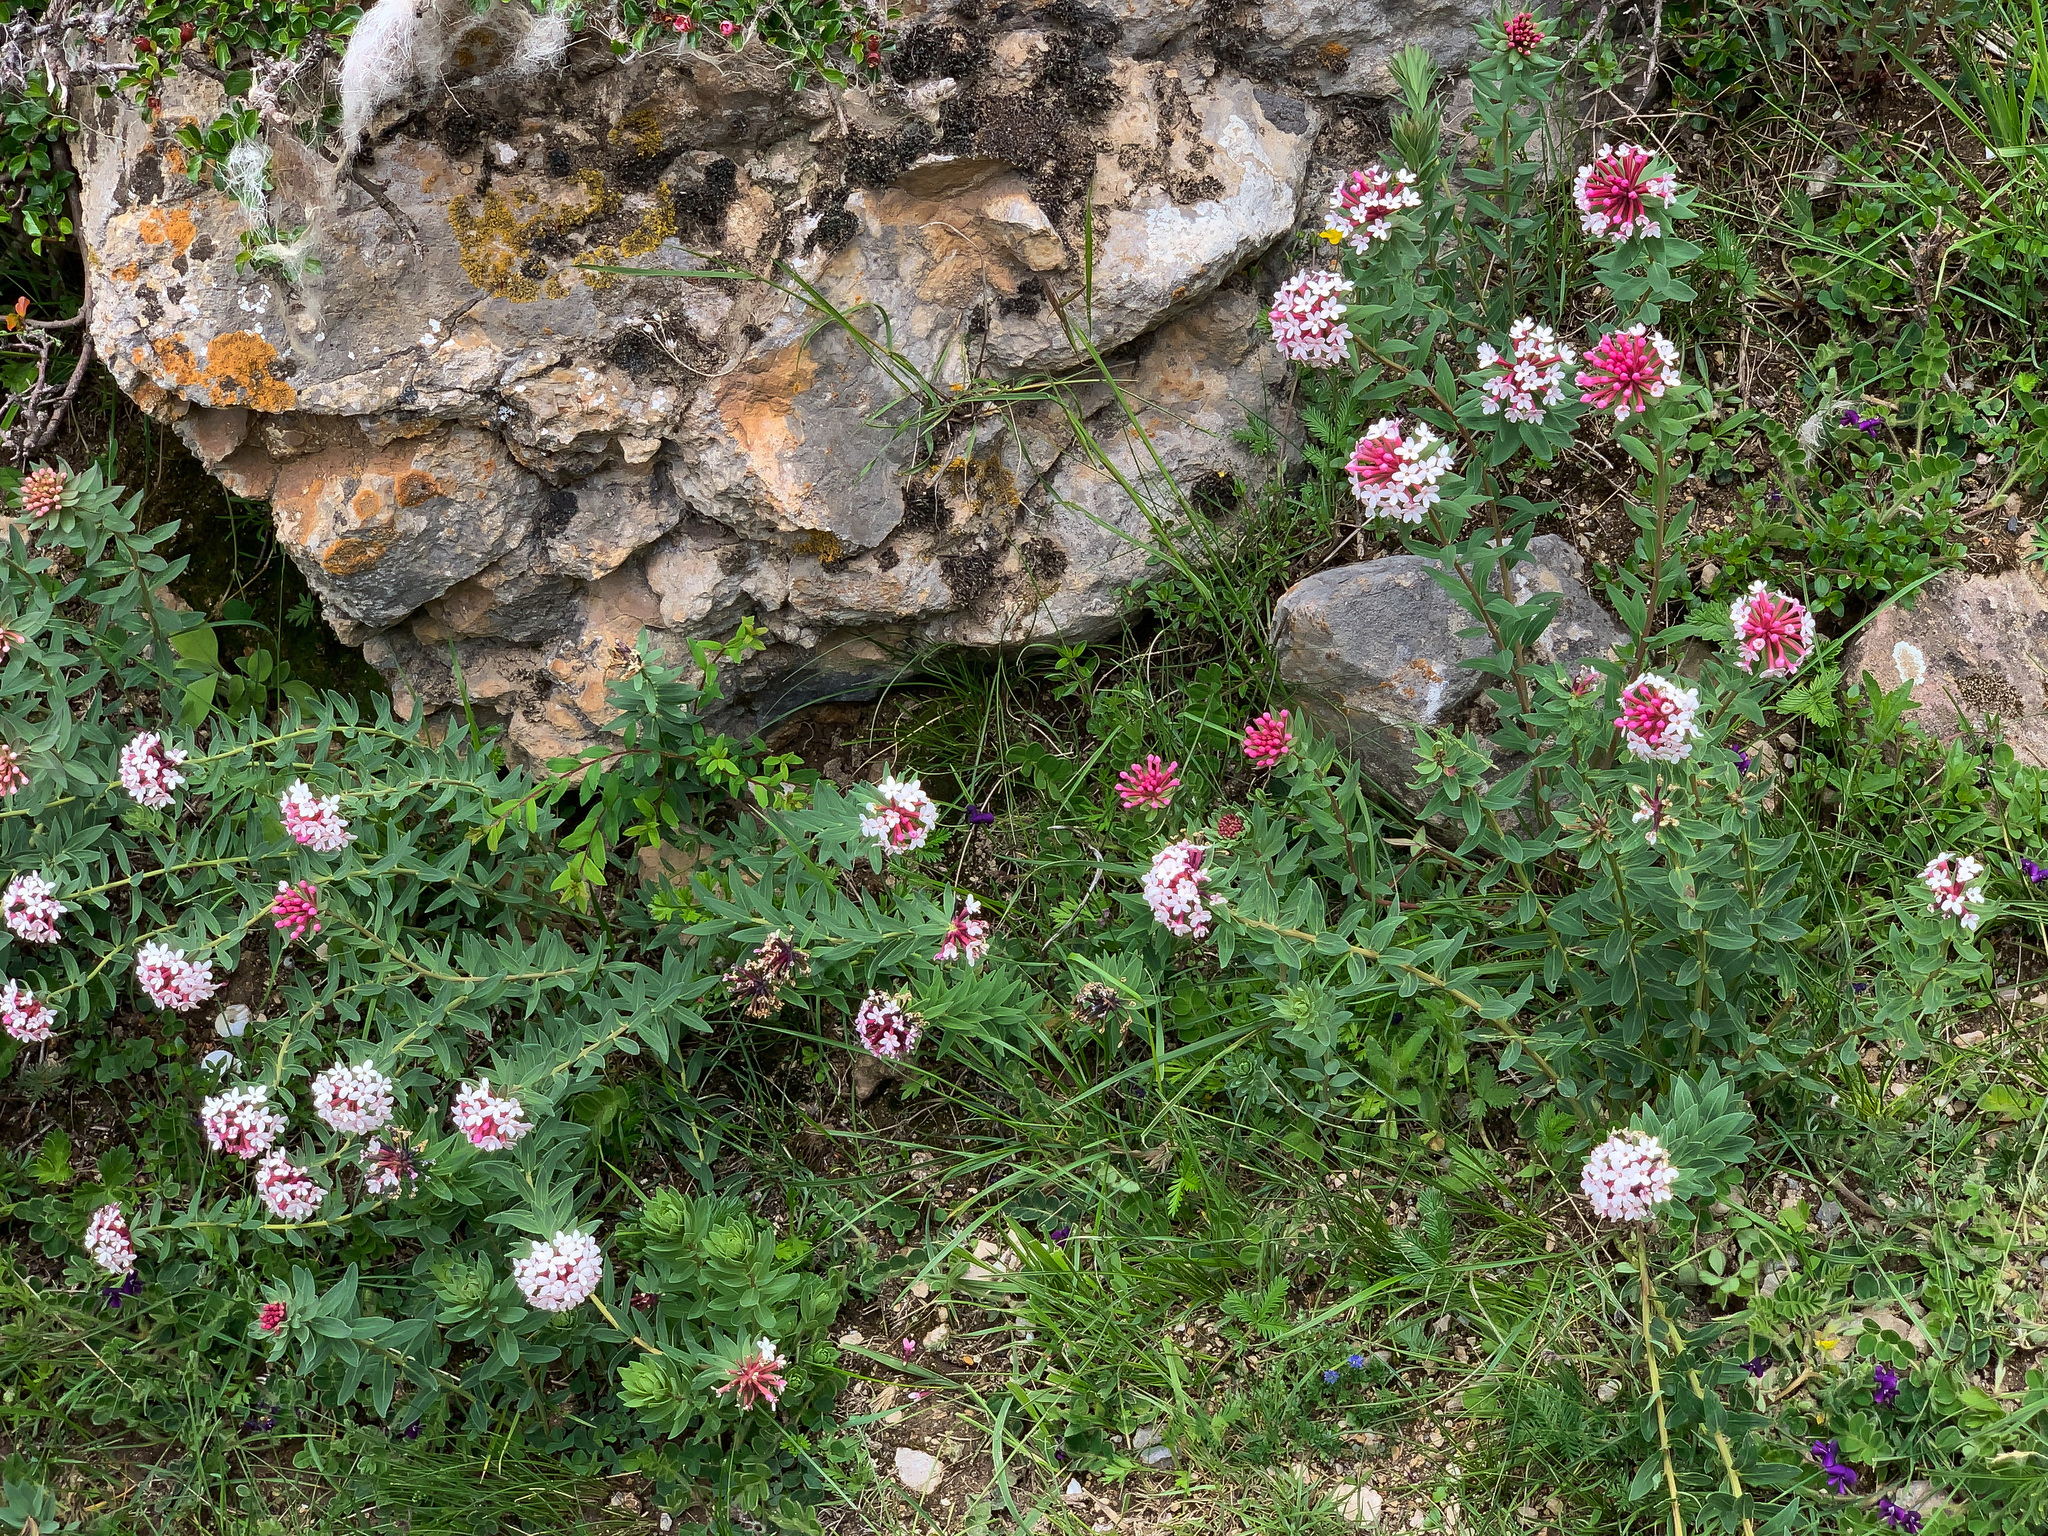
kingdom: Plantae
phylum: Tracheophyta
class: Magnoliopsida
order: Malvales
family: Thymelaeaceae
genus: Stellera
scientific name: Stellera chamaejasme
